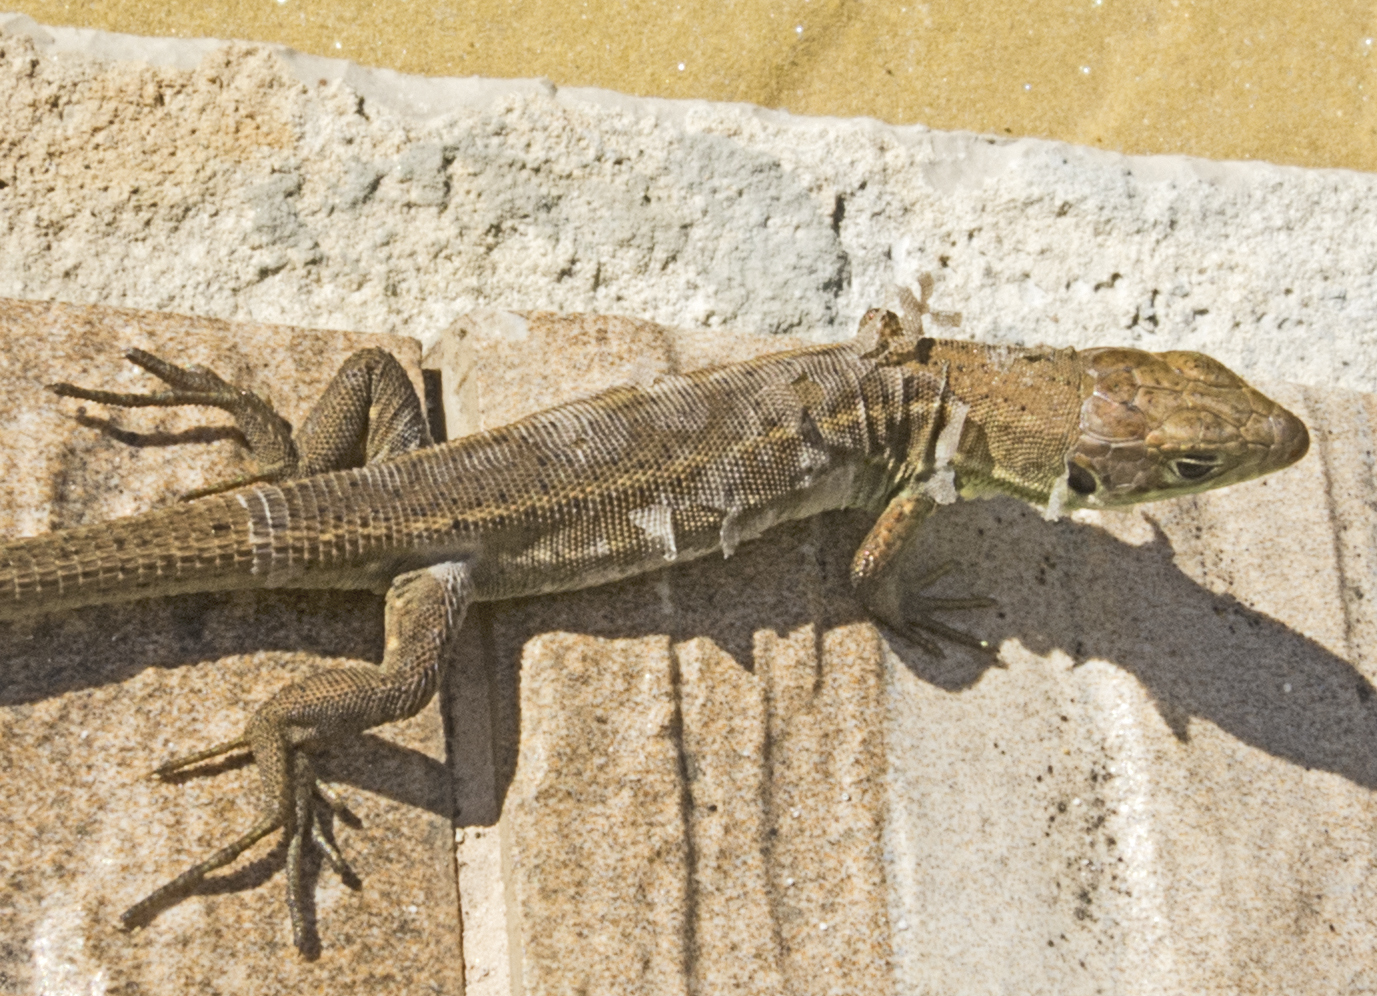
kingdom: Animalia
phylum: Chordata
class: Squamata
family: Lacertidae
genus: Lacerta
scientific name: Lacerta viridis
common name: European green lizard
